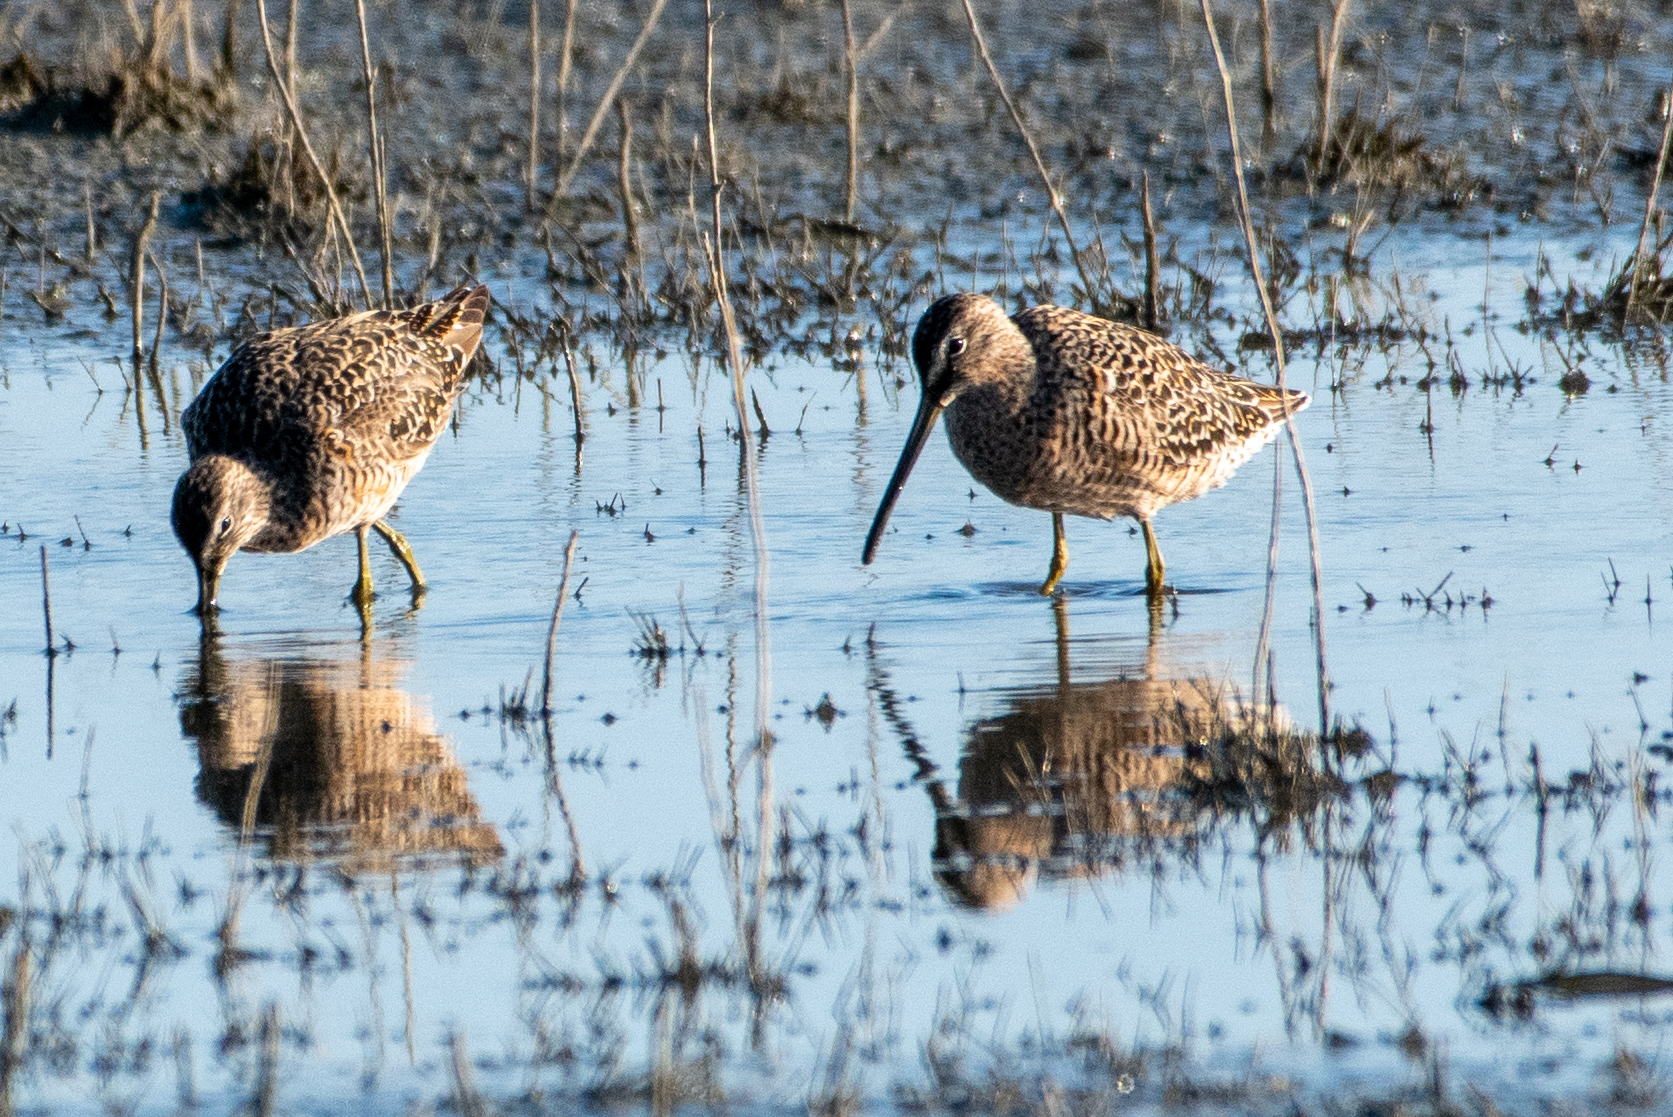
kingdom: Animalia
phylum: Chordata
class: Aves
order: Charadriiformes
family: Scolopacidae
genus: Limnodromus
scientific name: Limnodromus scolopaceus
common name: Long-billed dowitcher
